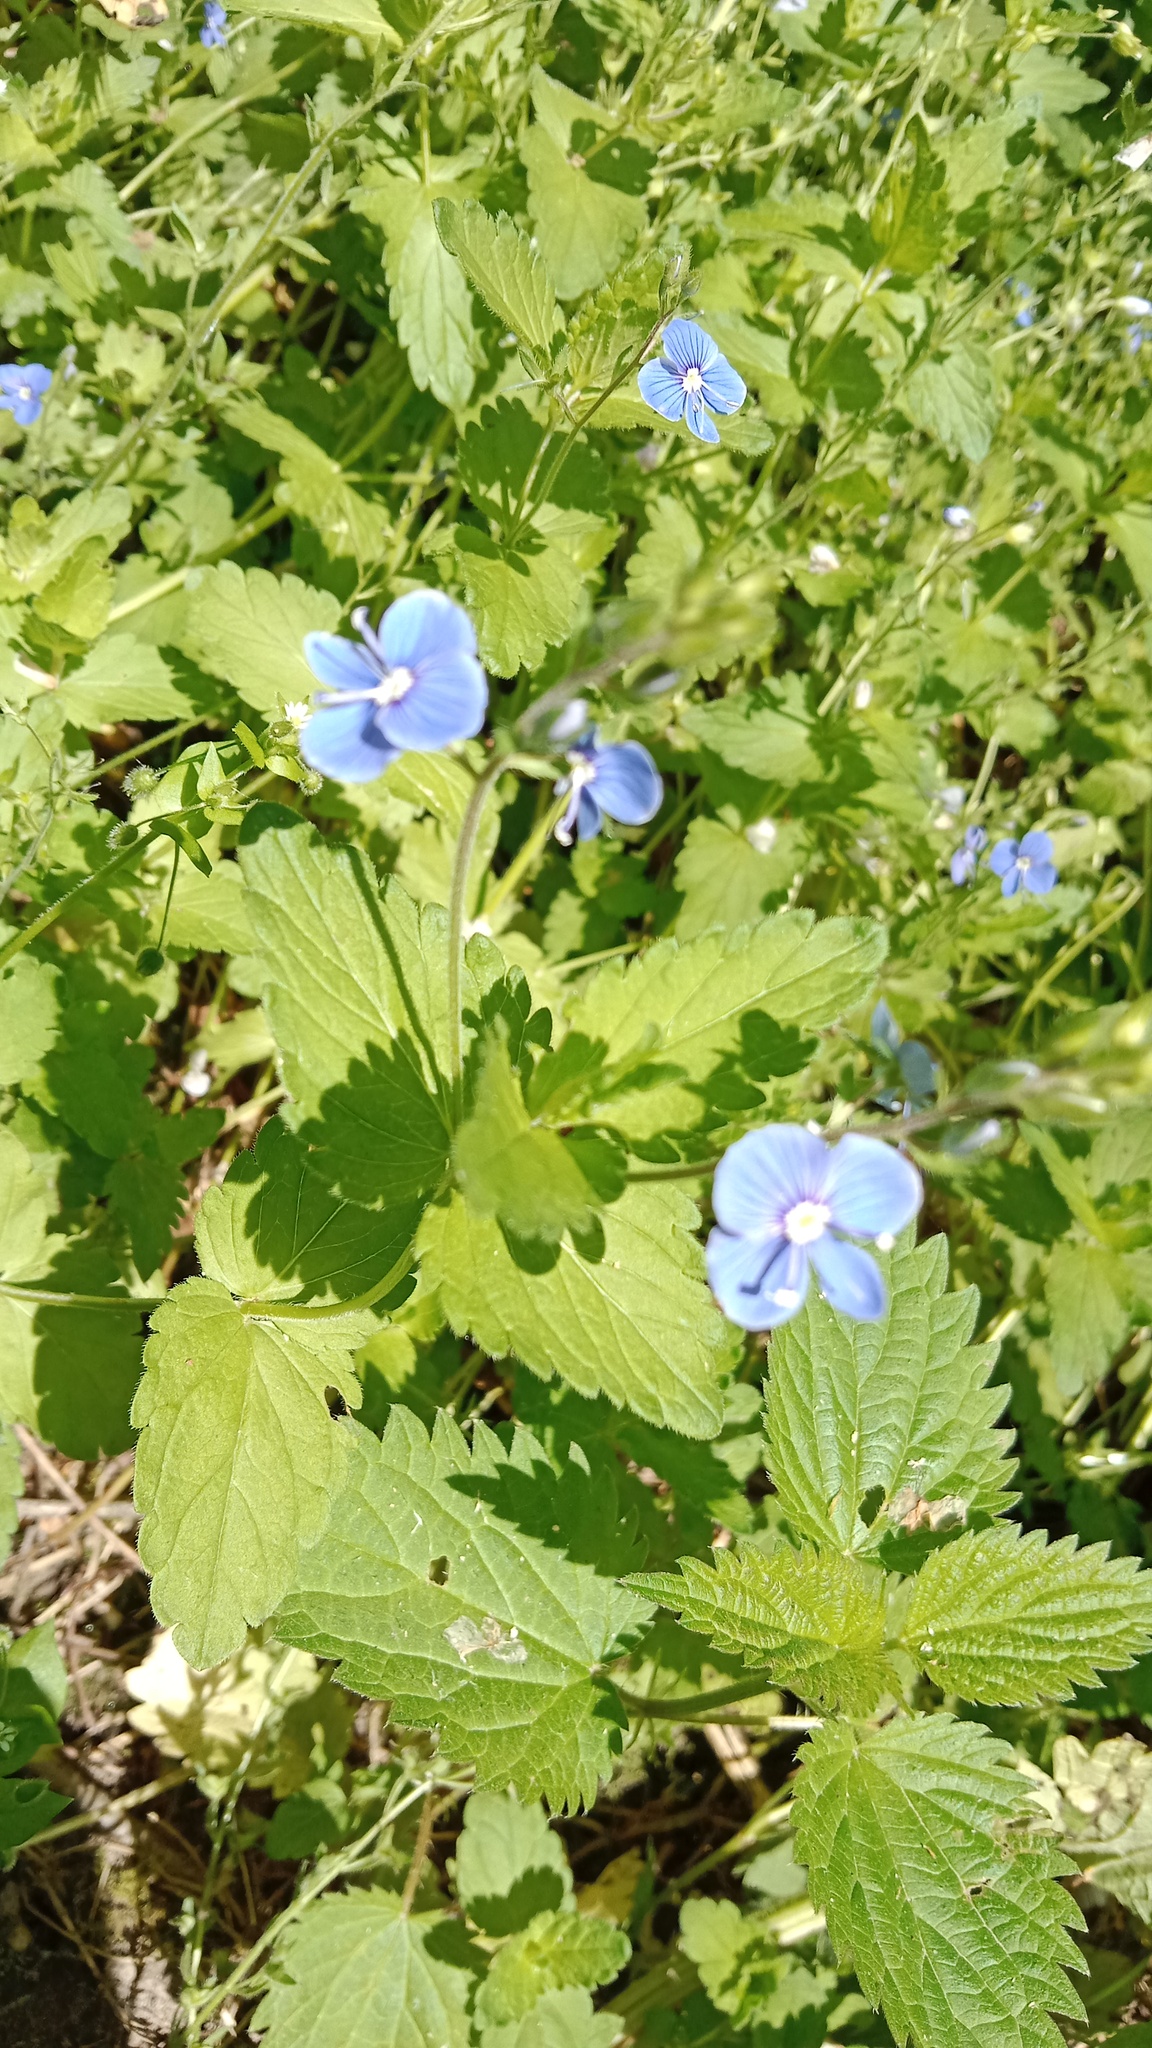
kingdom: Plantae
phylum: Tracheophyta
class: Magnoliopsida
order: Lamiales
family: Plantaginaceae
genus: Veronica
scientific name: Veronica chamaedrys
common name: Germander speedwell
